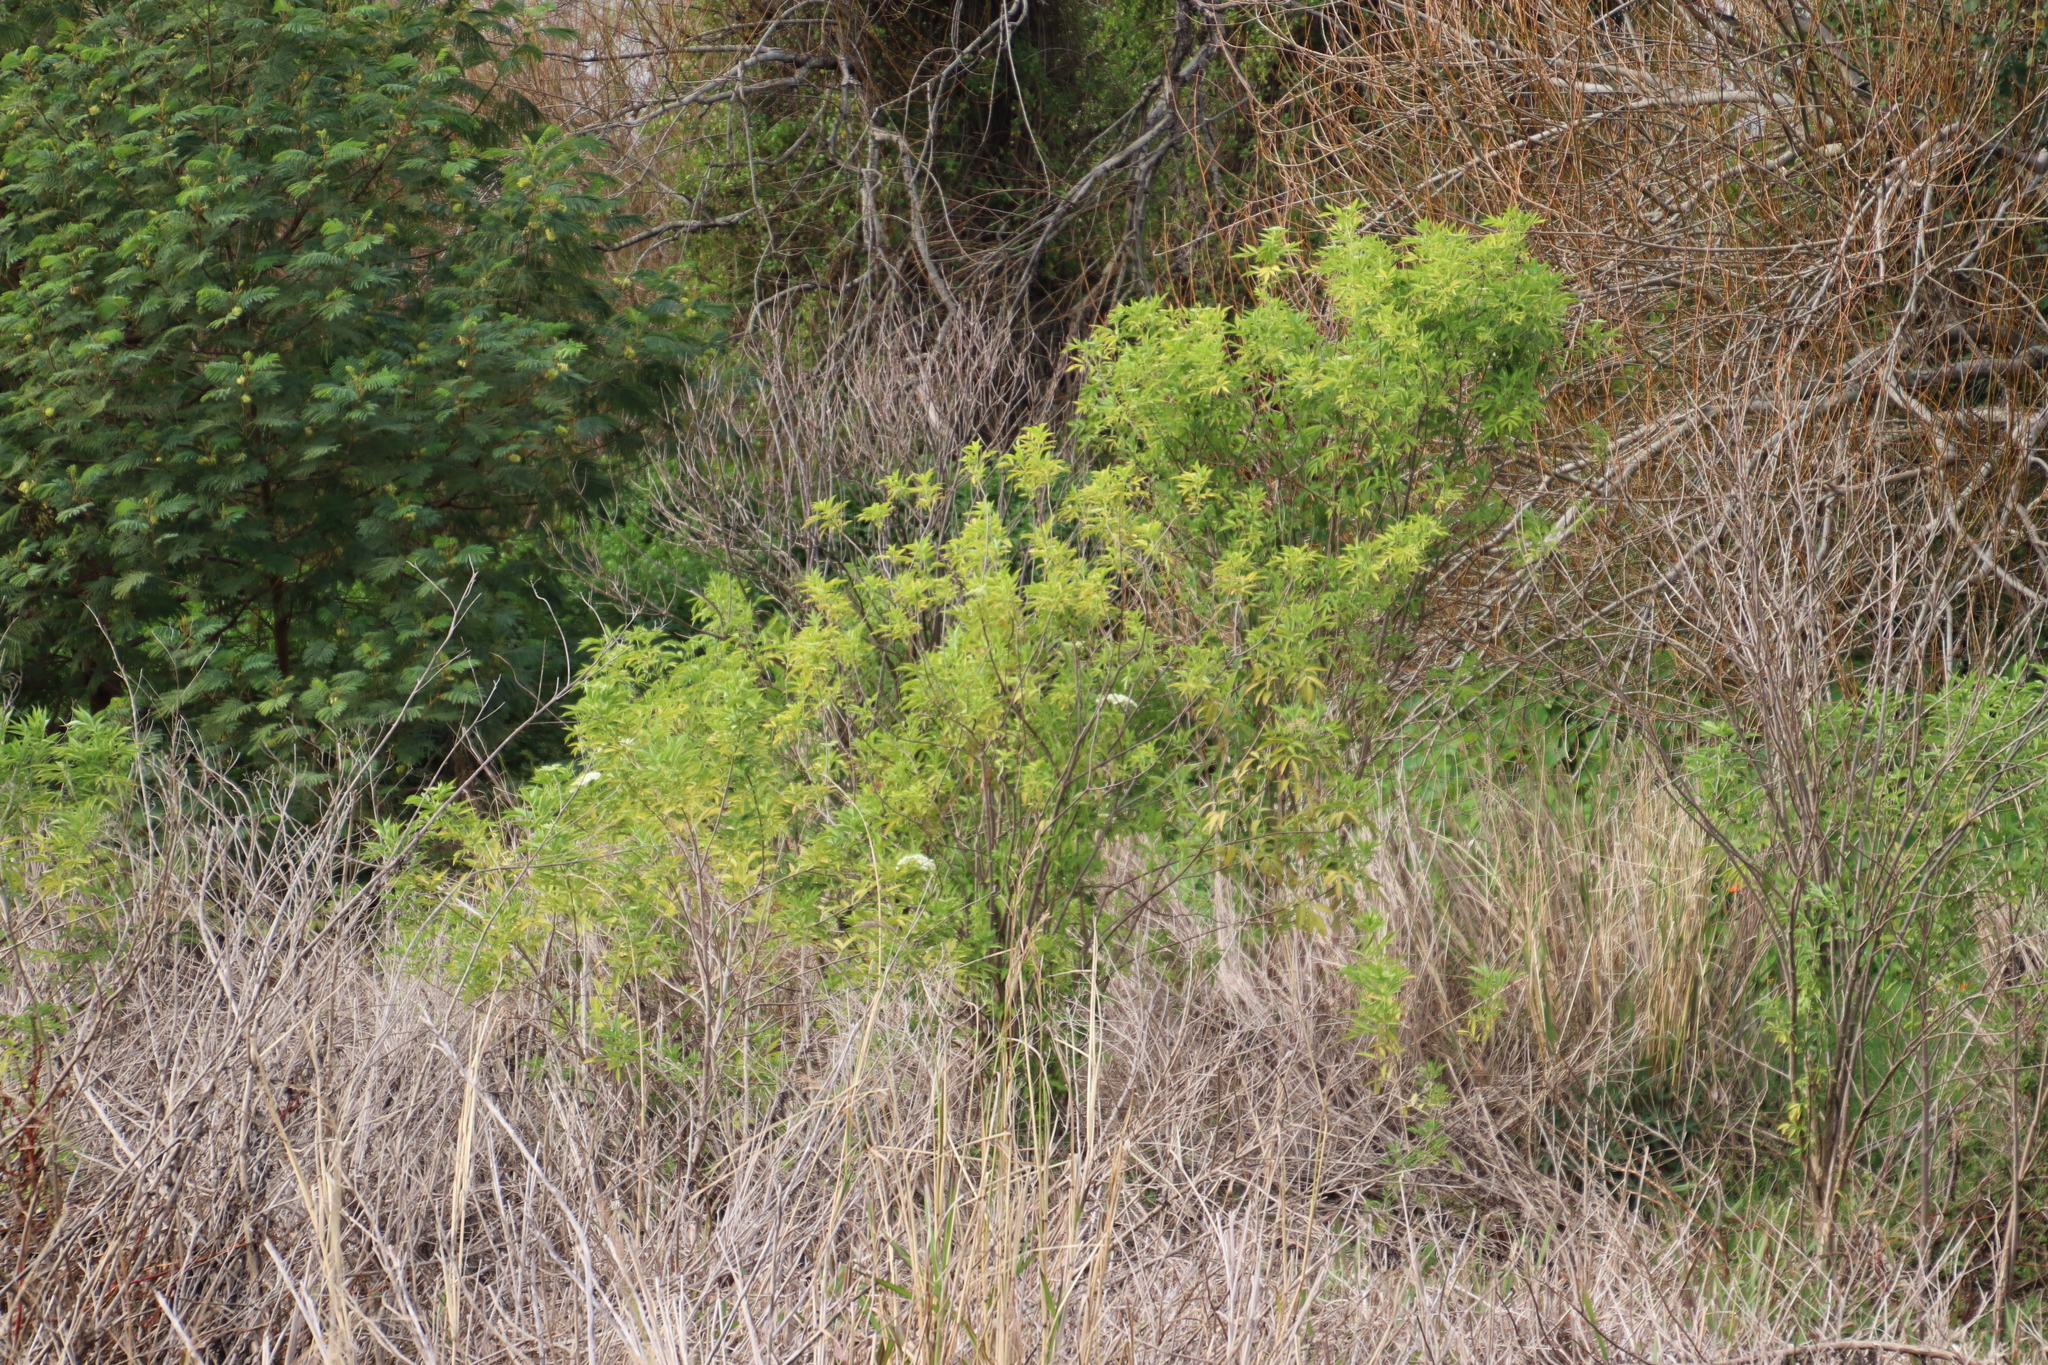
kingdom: Plantae
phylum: Tracheophyta
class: Magnoliopsida
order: Dipsacales
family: Viburnaceae
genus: Sambucus
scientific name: Sambucus nigra
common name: Elder
